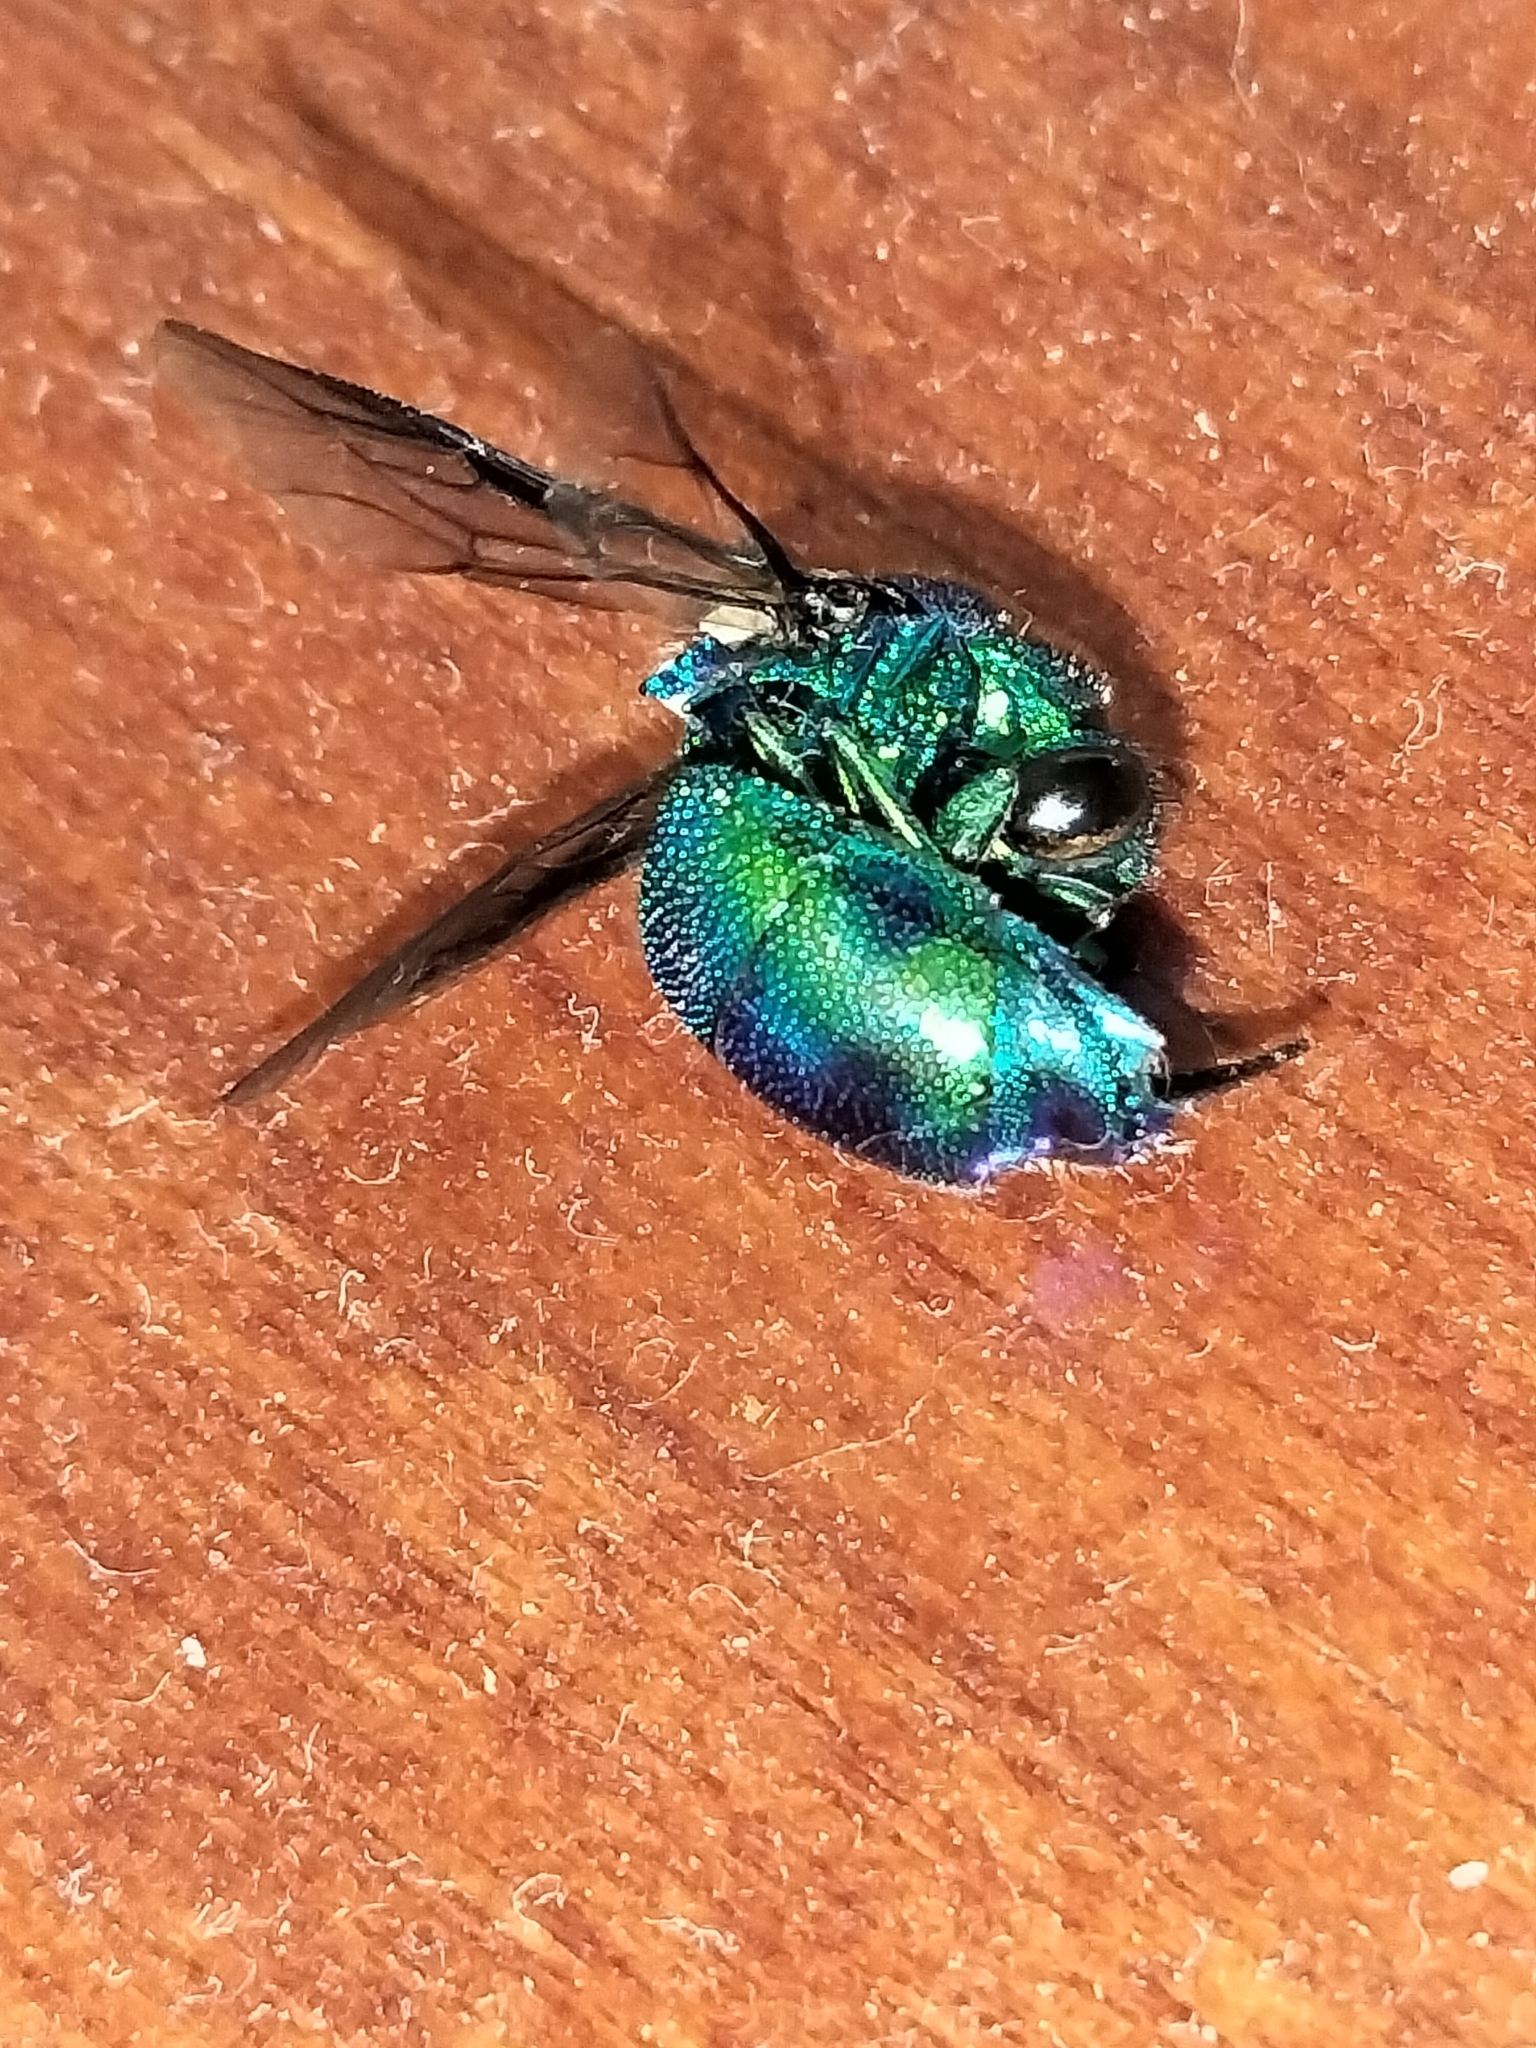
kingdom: Animalia
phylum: Arthropoda
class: Insecta
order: Hymenoptera
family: Chrysididae
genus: Chrysis
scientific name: Chrysis lincea
